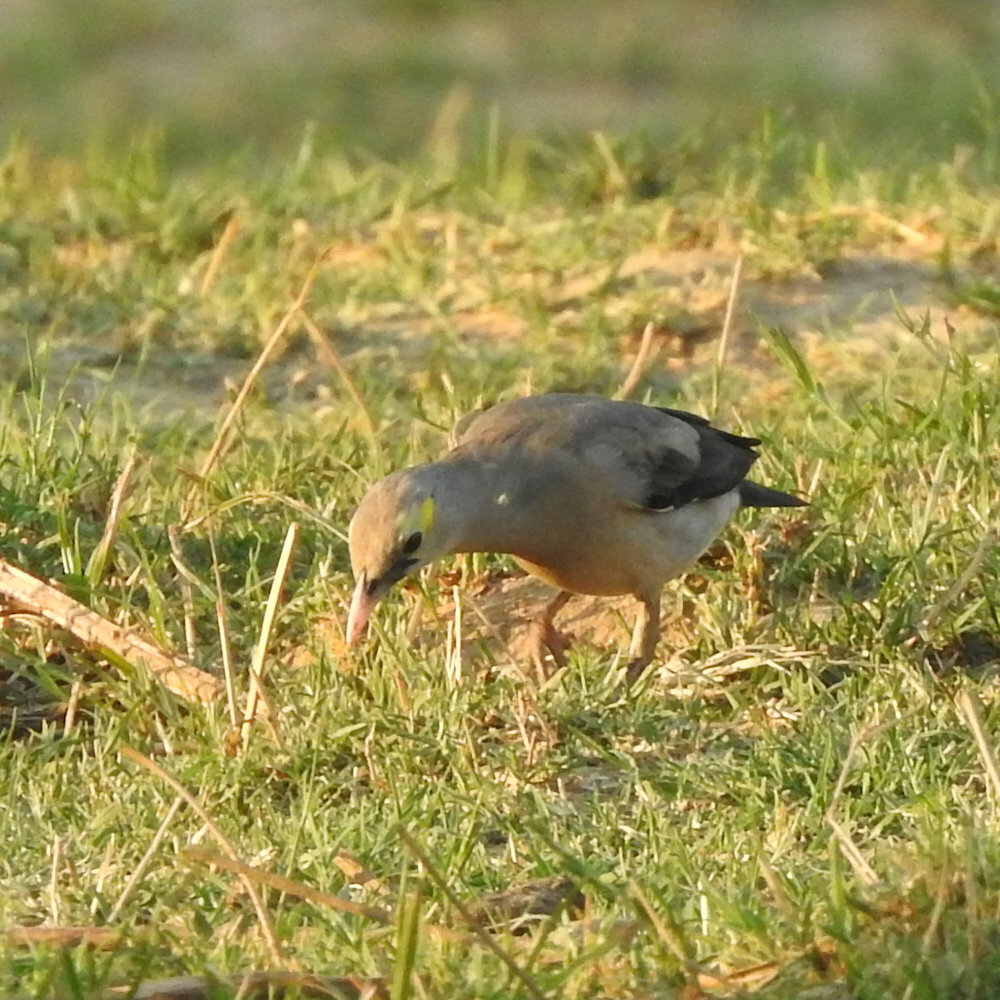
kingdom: Animalia
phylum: Chordata
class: Aves
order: Passeriformes
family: Sturnidae
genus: Creatophora
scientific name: Creatophora cinerea
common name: Wattled starling
